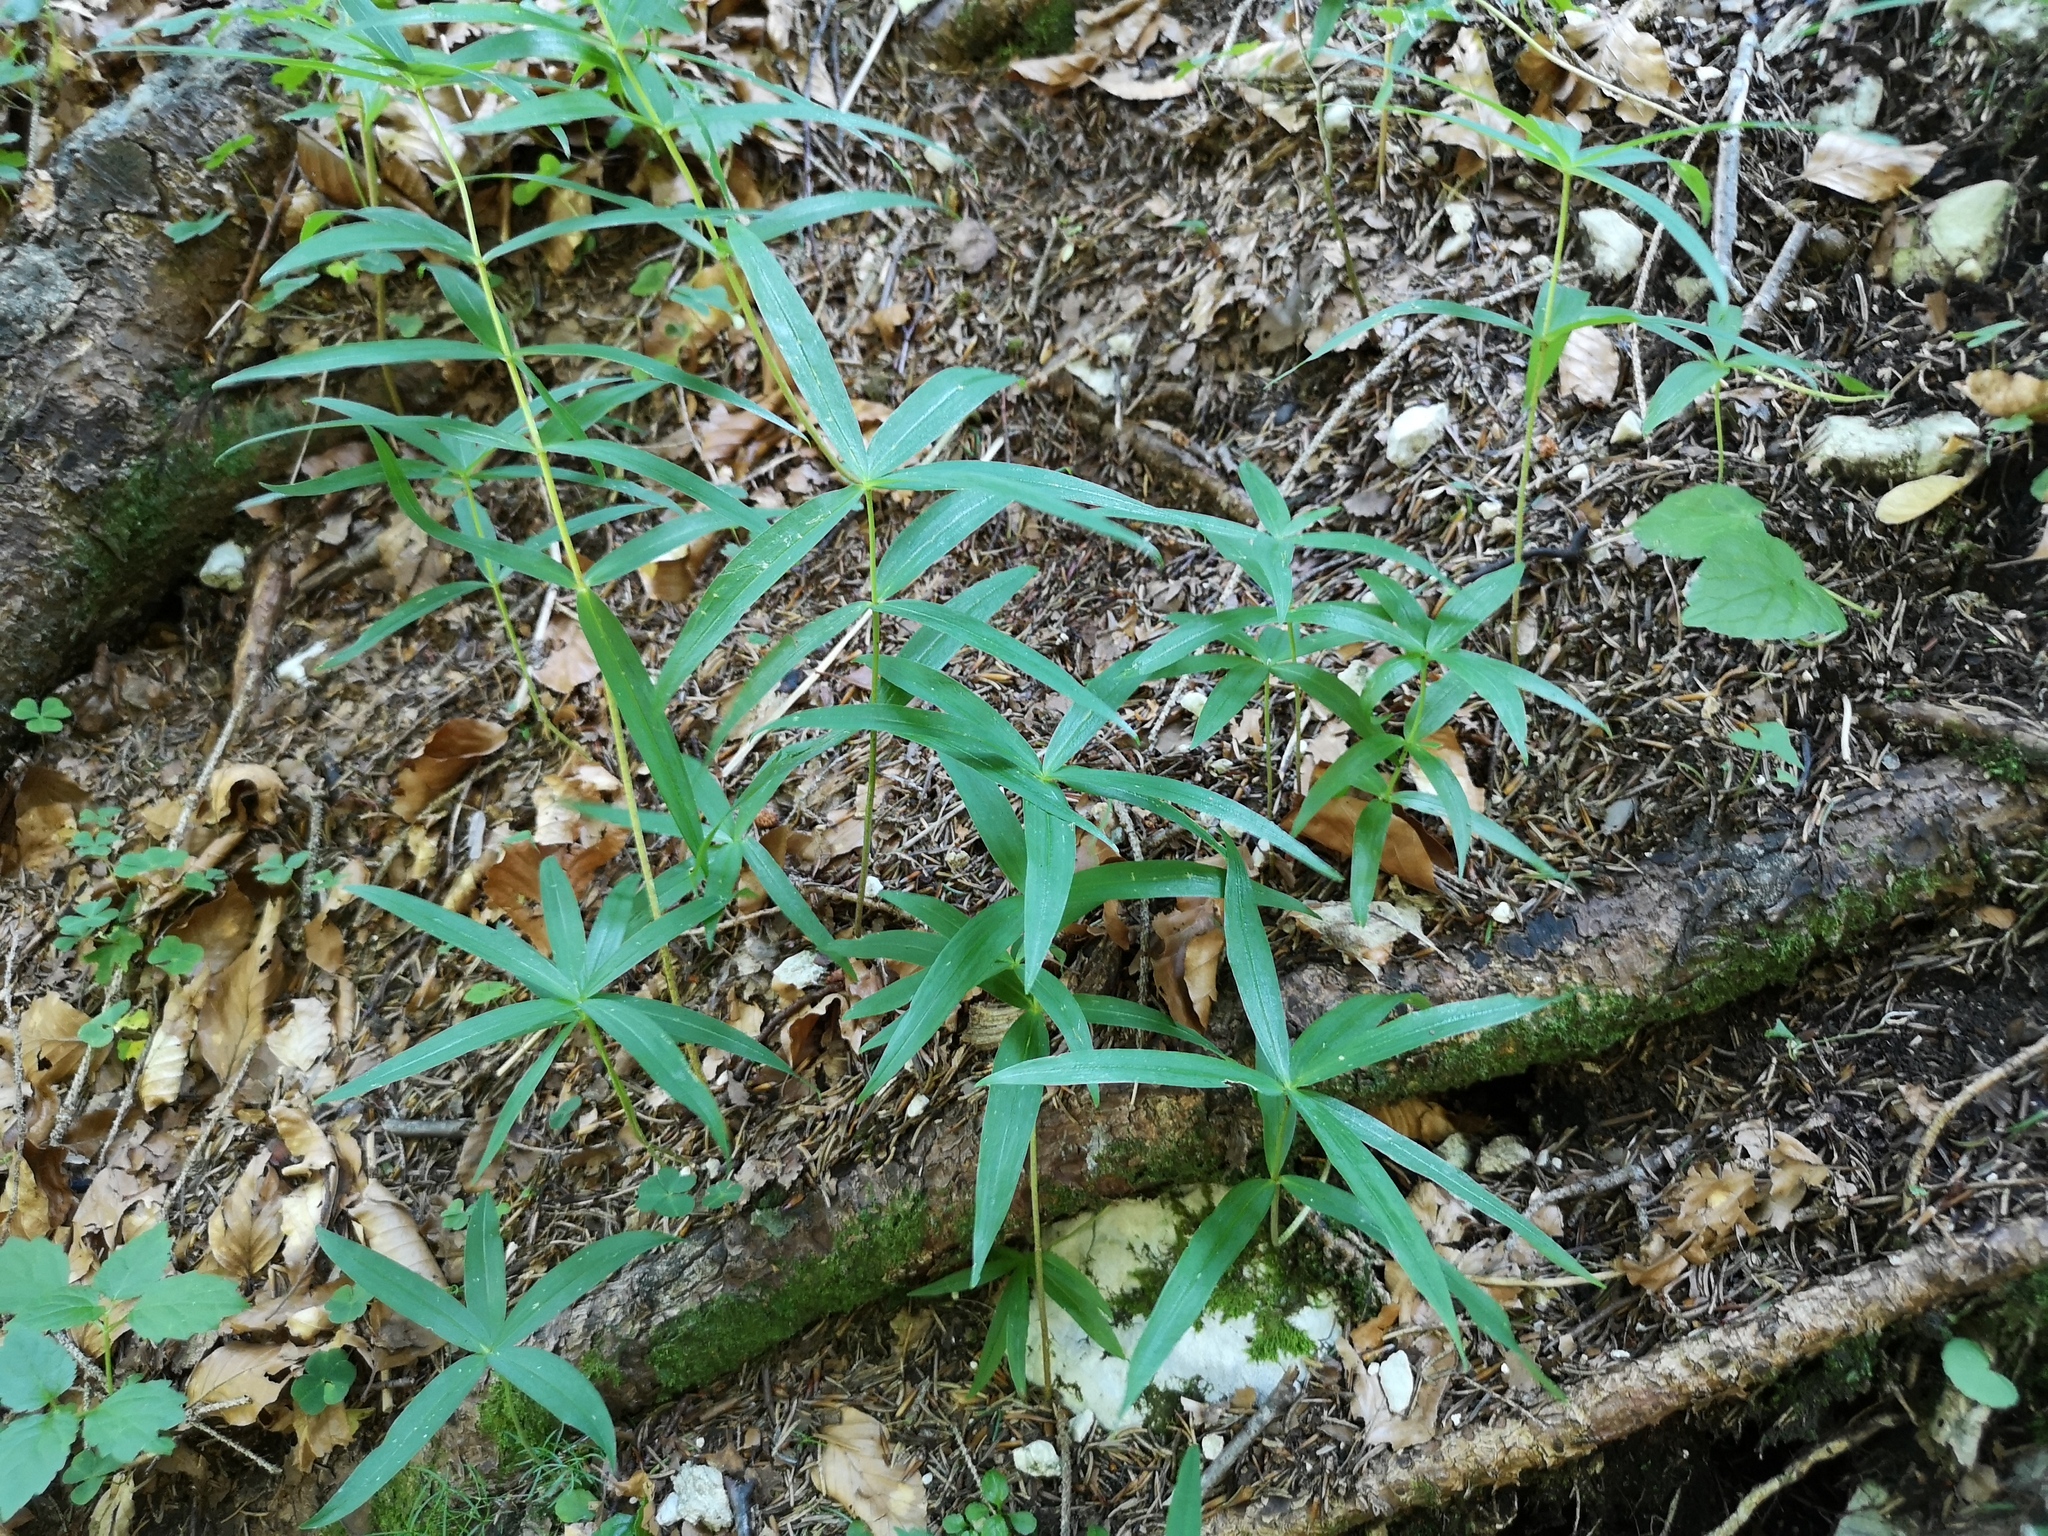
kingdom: Plantae
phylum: Tracheophyta
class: Liliopsida
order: Asparagales
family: Asparagaceae
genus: Polygonatum
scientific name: Polygonatum verticillatum
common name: Whorled solomon's-seal
